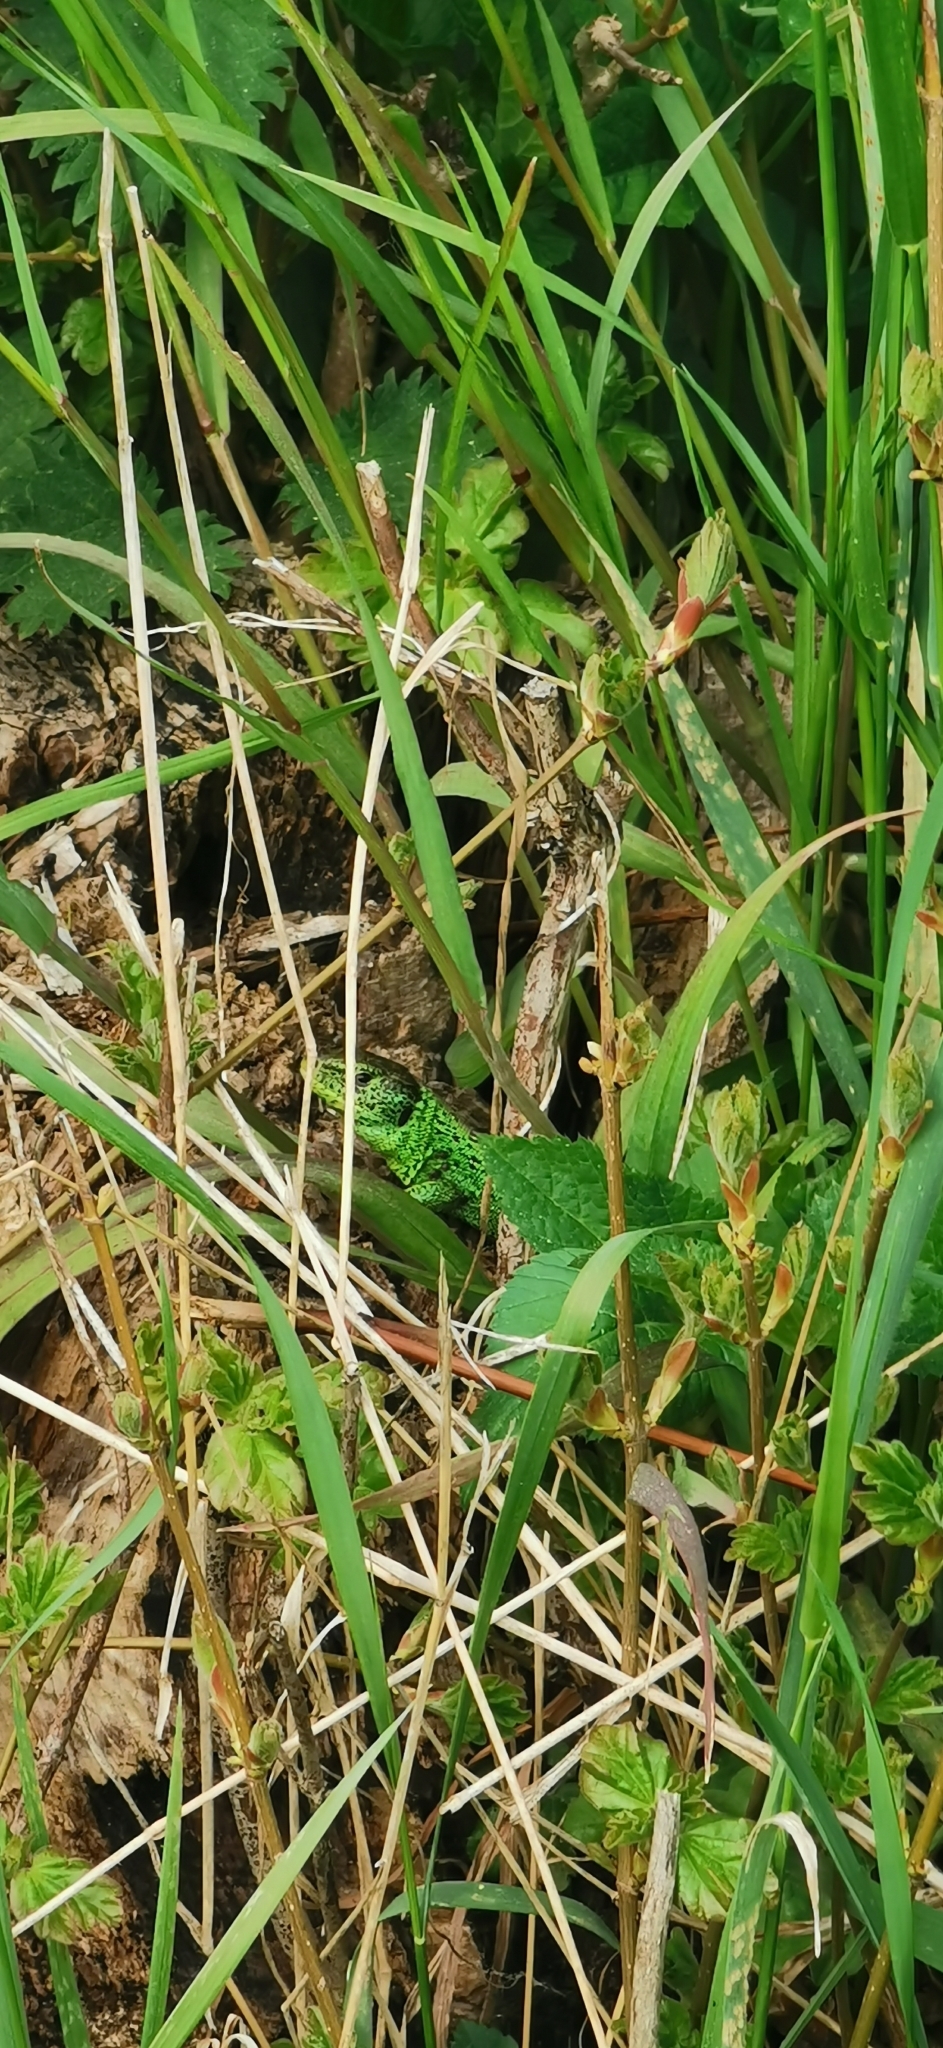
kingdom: Animalia
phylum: Chordata
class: Squamata
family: Lacertidae
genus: Lacerta
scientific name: Lacerta agilis
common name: Sand lizard
